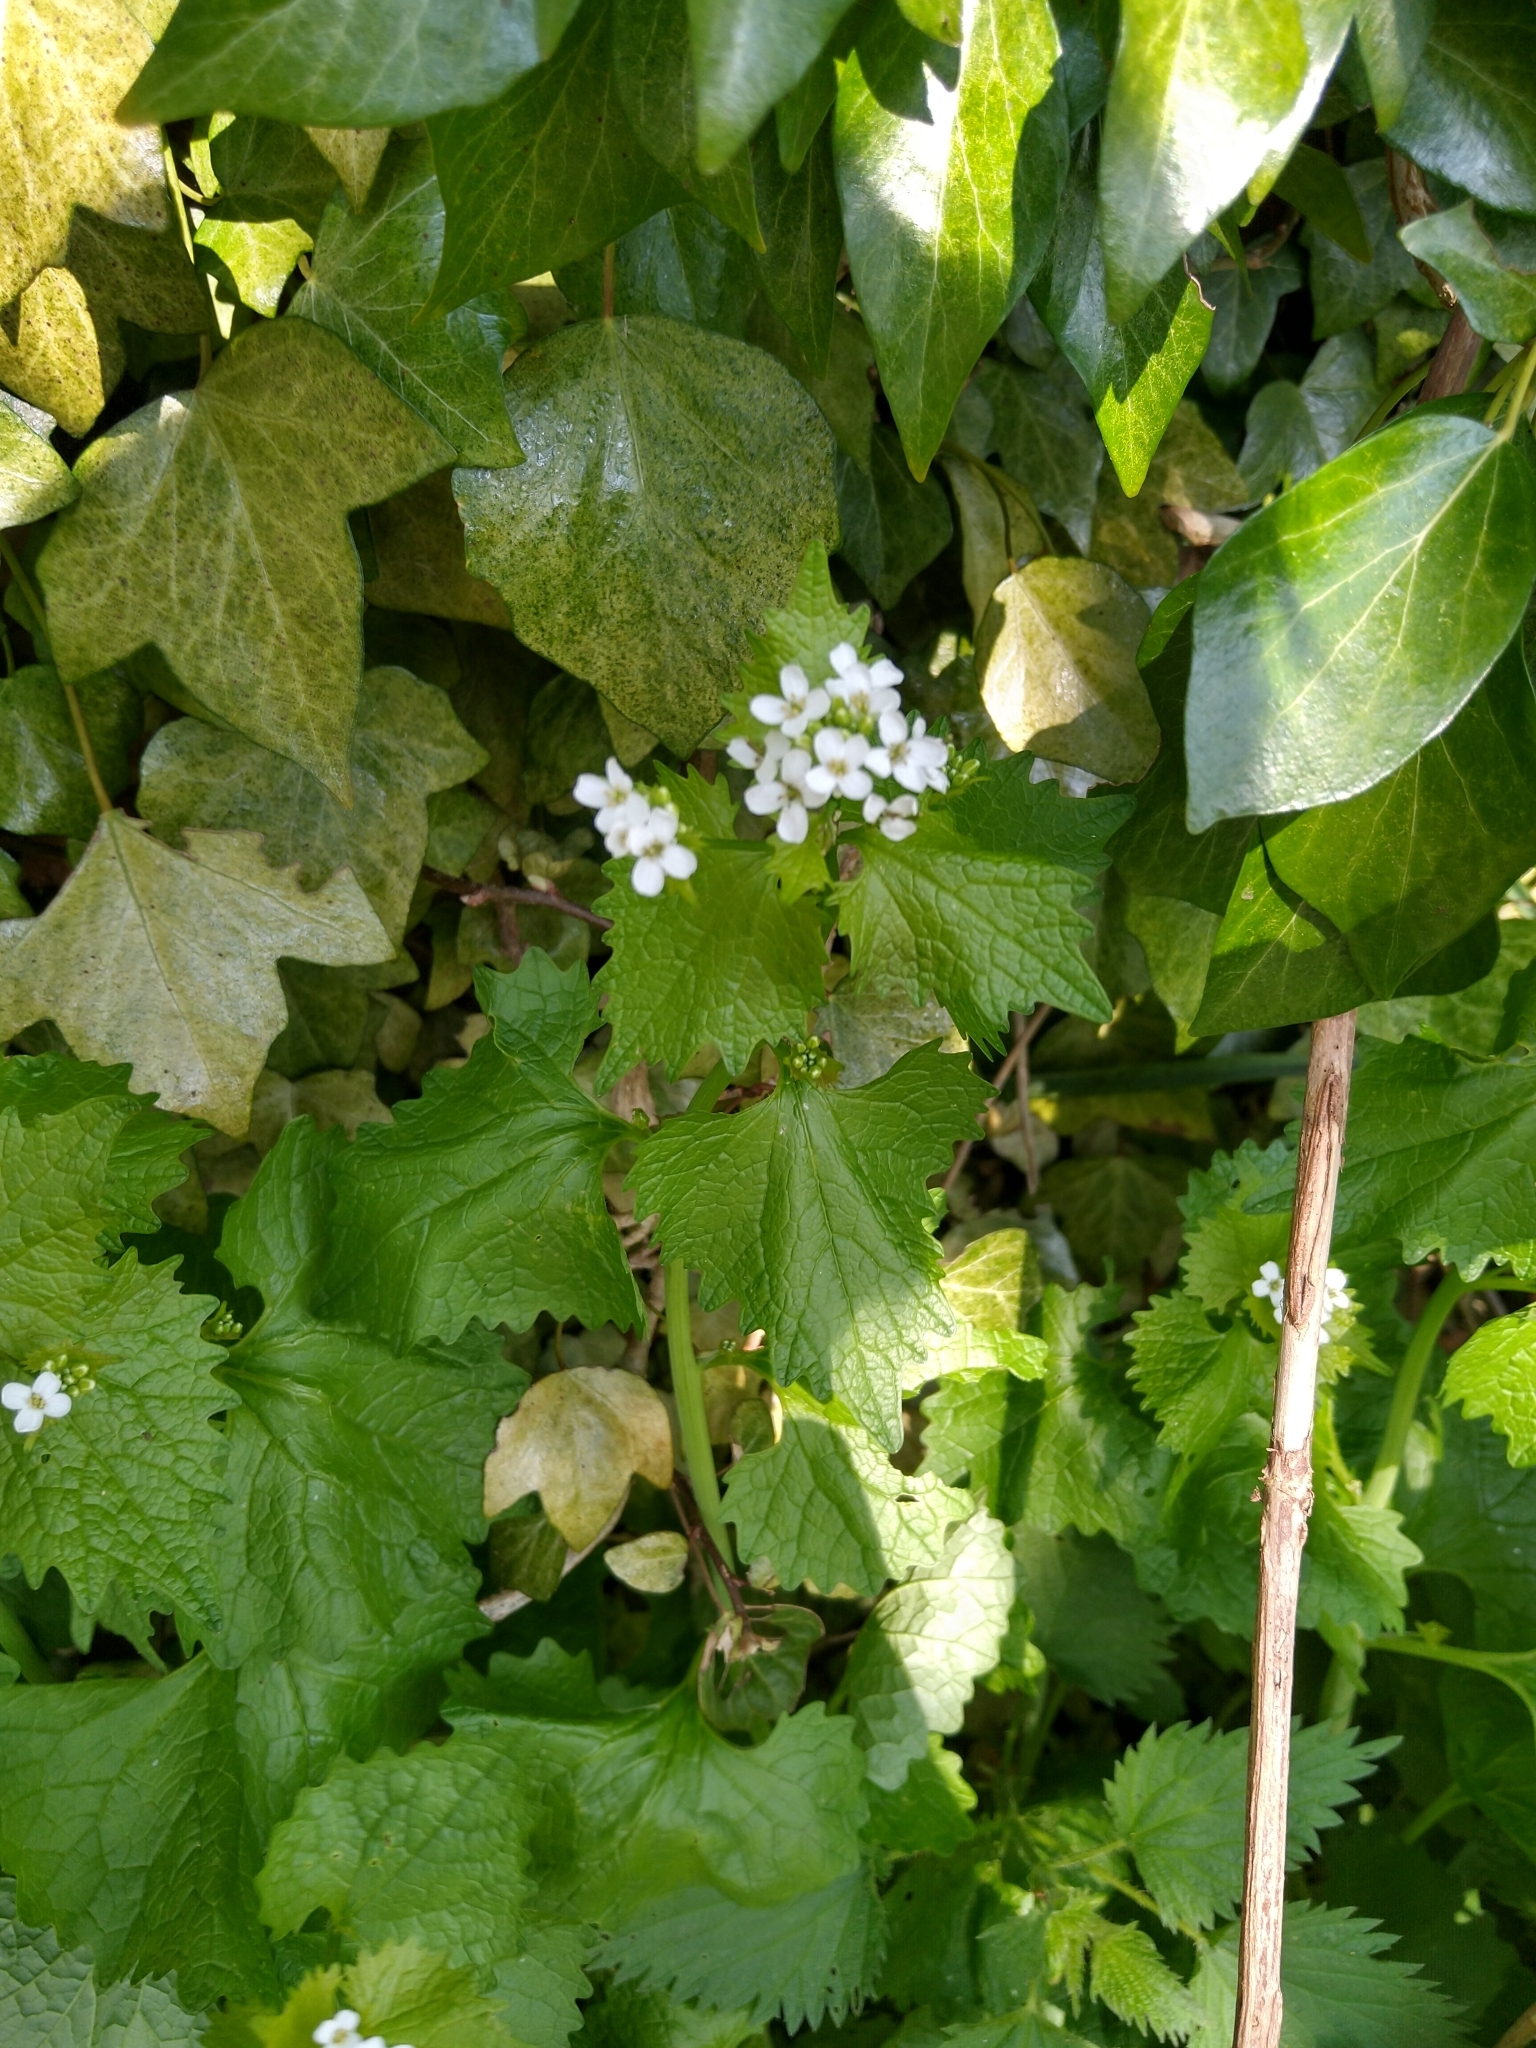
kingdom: Plantae
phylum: Tracheophyta
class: Magnoliopsida
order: Brassicales
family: Brassicaceae
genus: Alliaria
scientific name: Alliaria petiolata
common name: Garlic mustard
